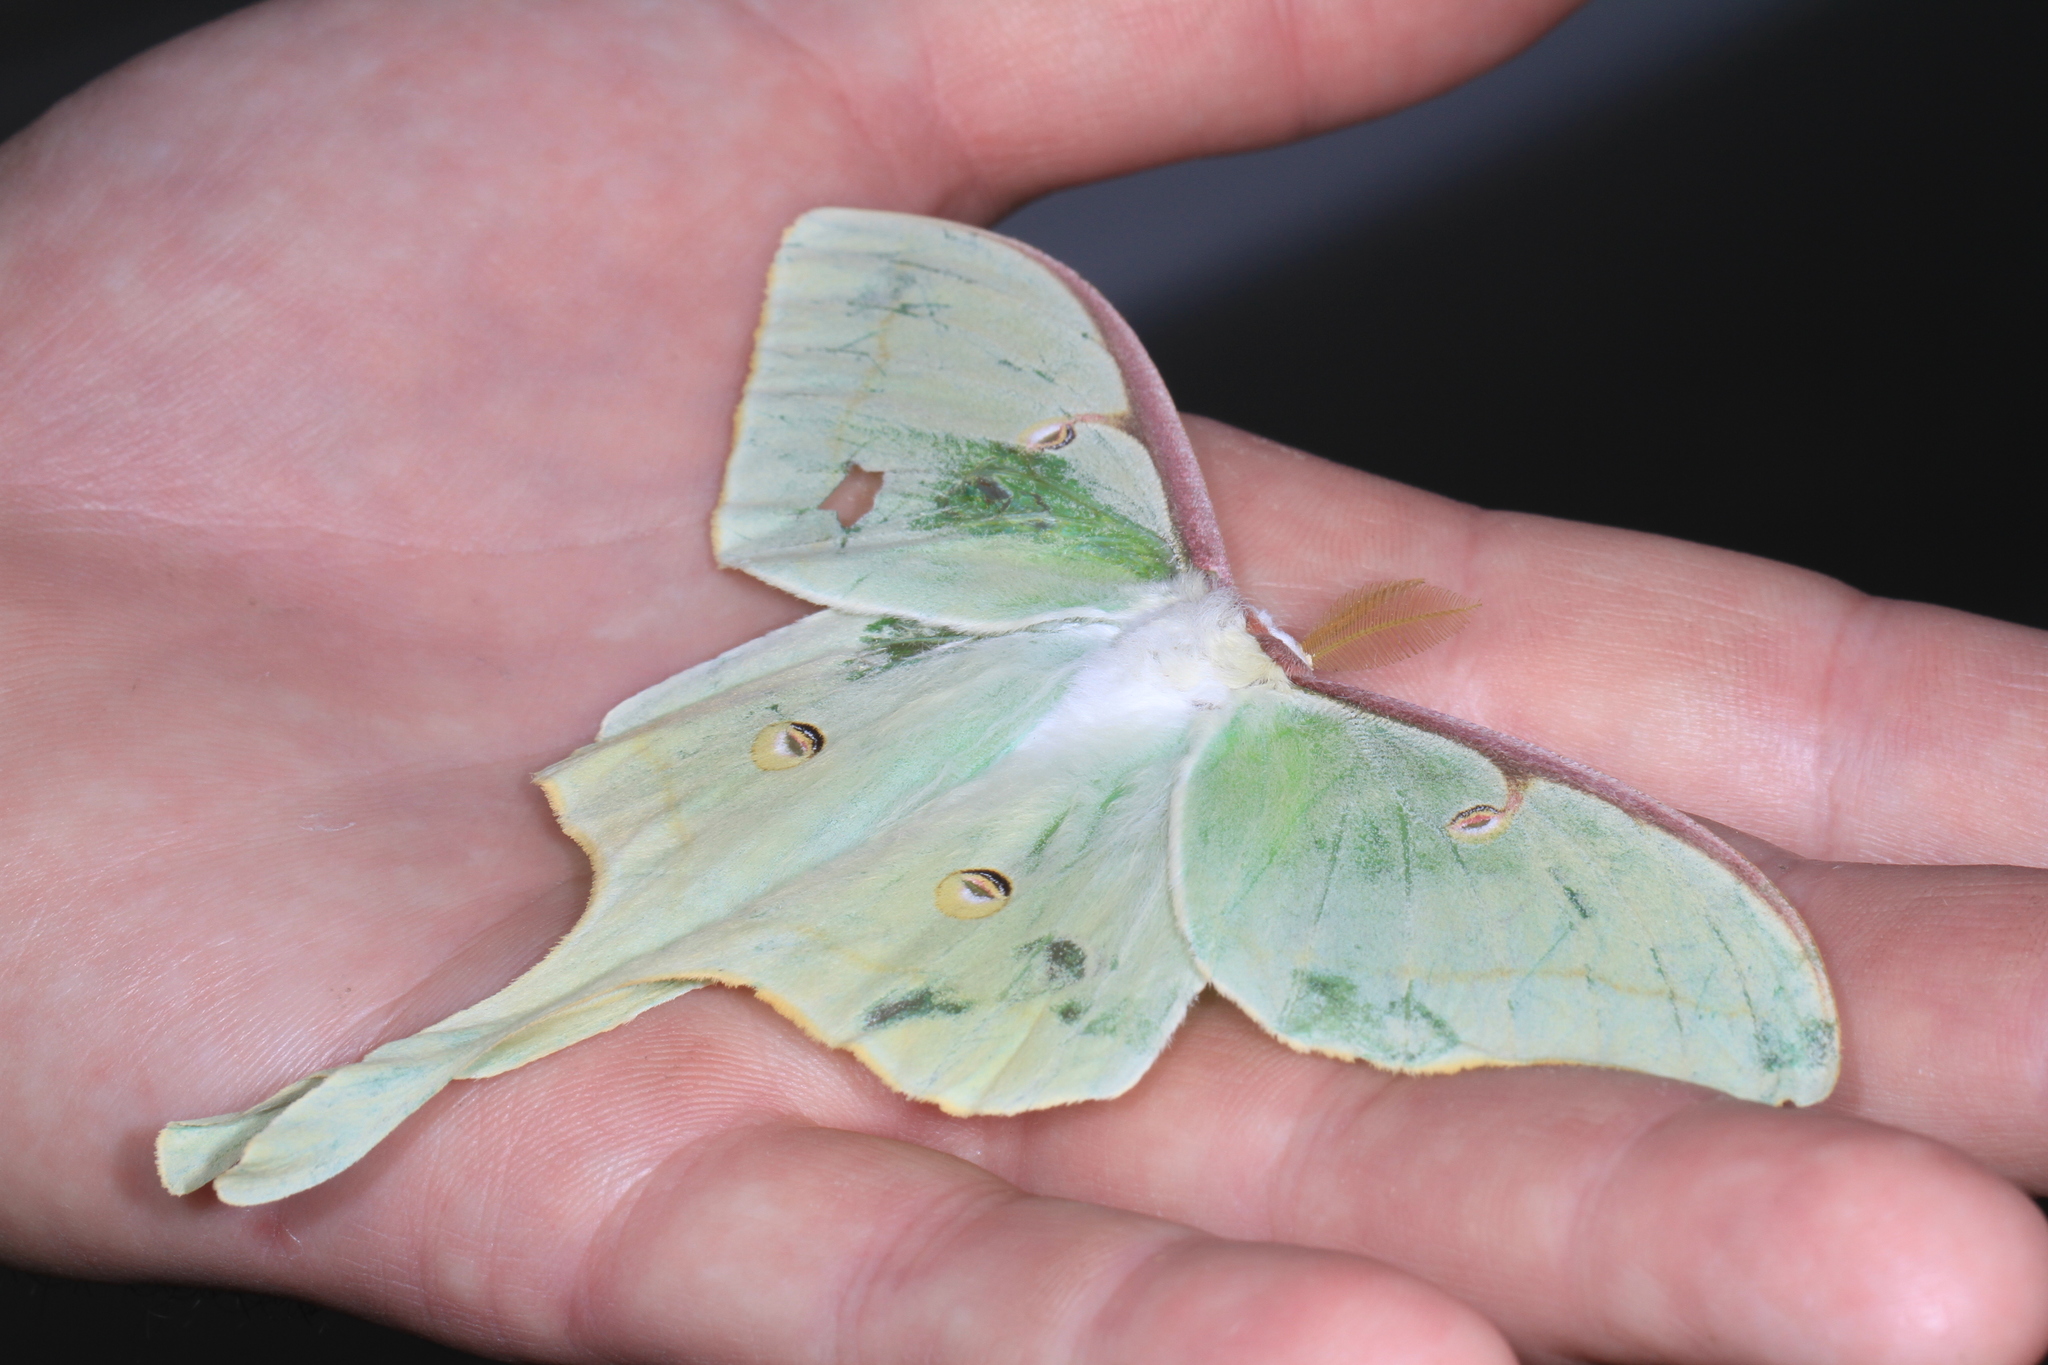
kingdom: Animalia
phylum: Arthropoda
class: Insecta
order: Lepidoptera
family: Saturniidae
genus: Actias
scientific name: Actias luna
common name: Luna moth
